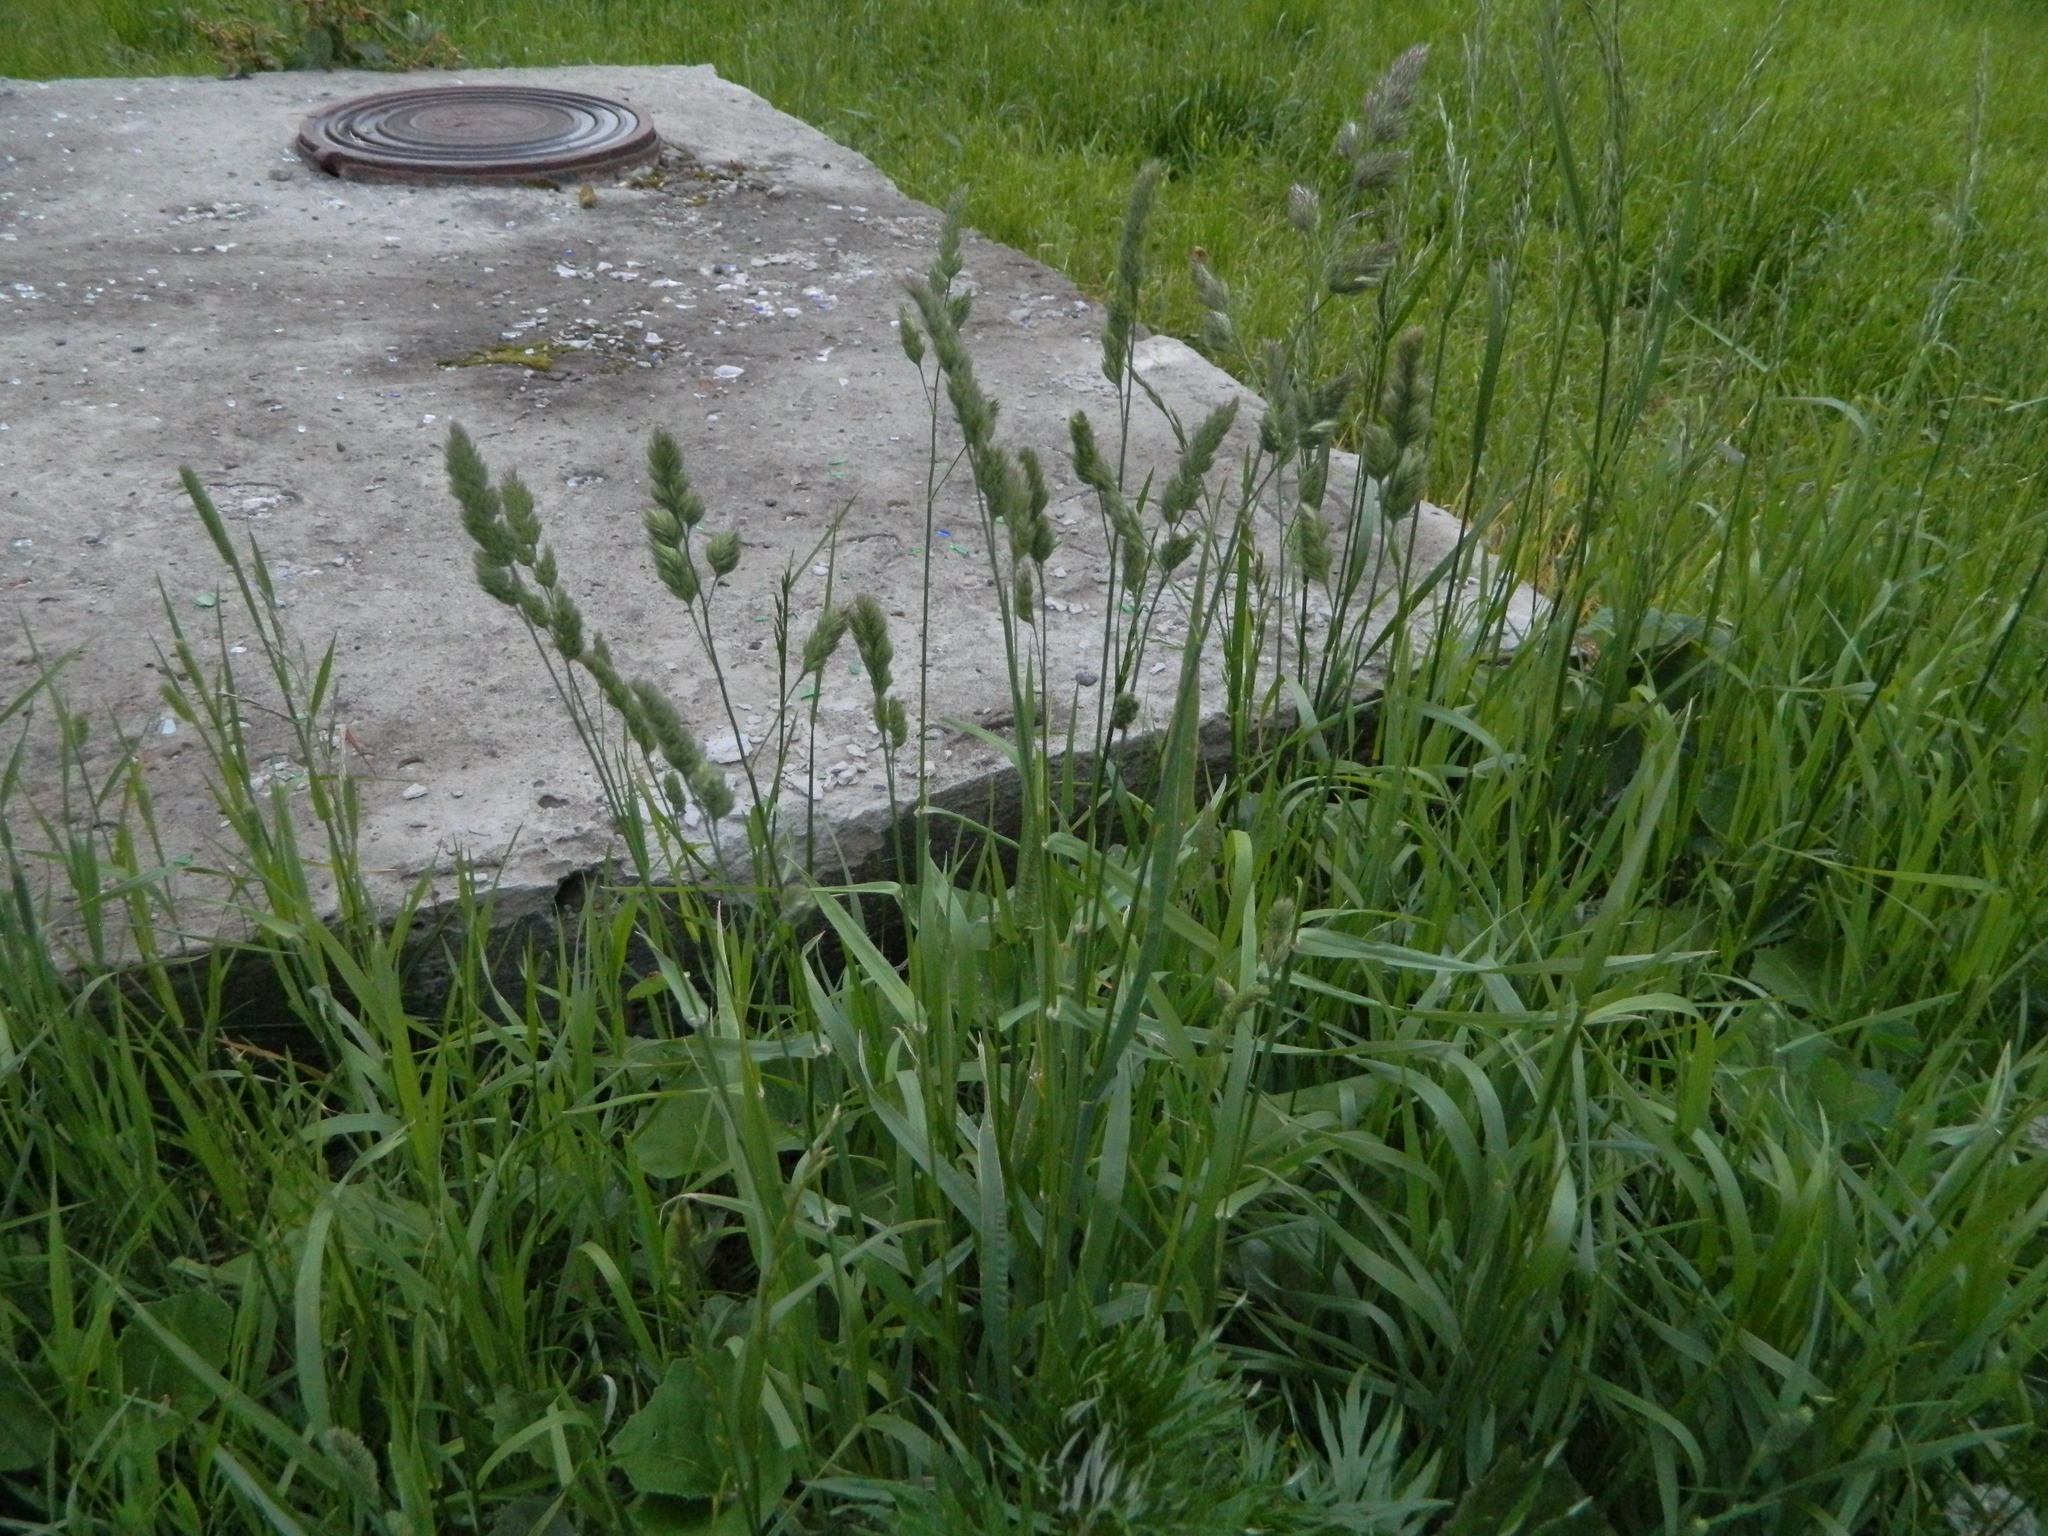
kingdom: Plantae
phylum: Tracheophyta
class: Liliopsida
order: Poales
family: Poaceae
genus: Dactylis
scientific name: Dactylis glomerata
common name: Orchardgrass
